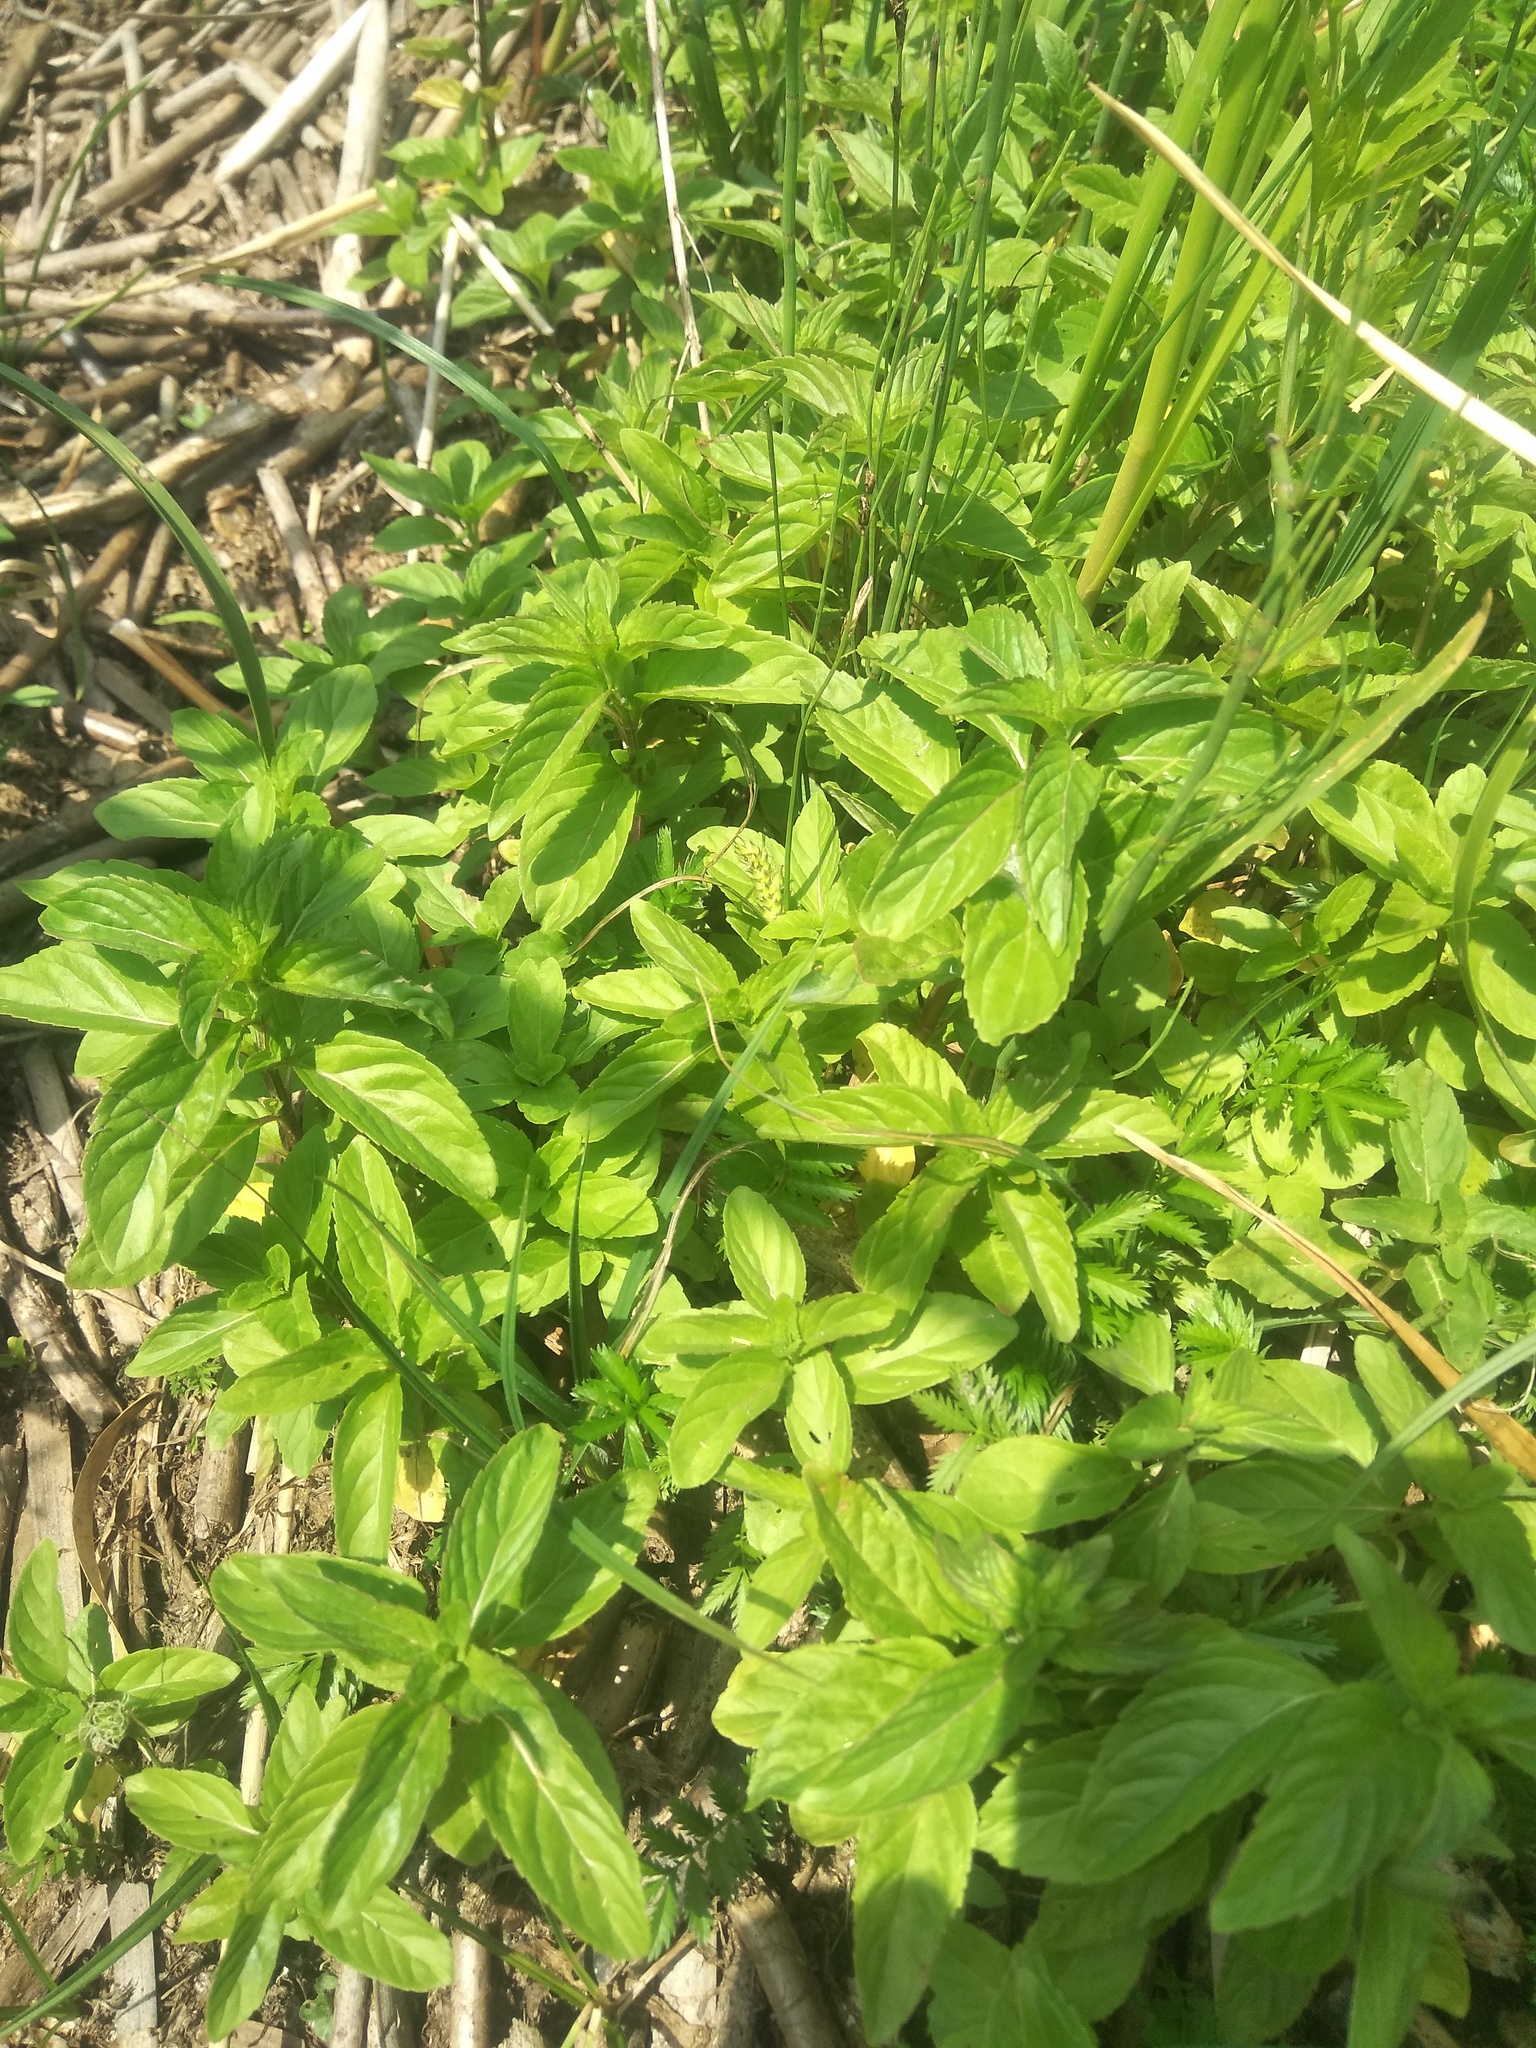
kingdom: Plantae
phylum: Tracheophyta
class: Magnoliopsida
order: Lamiales
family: Lamiaceae
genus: Mentha
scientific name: Mentha arvensis
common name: Corn mint
